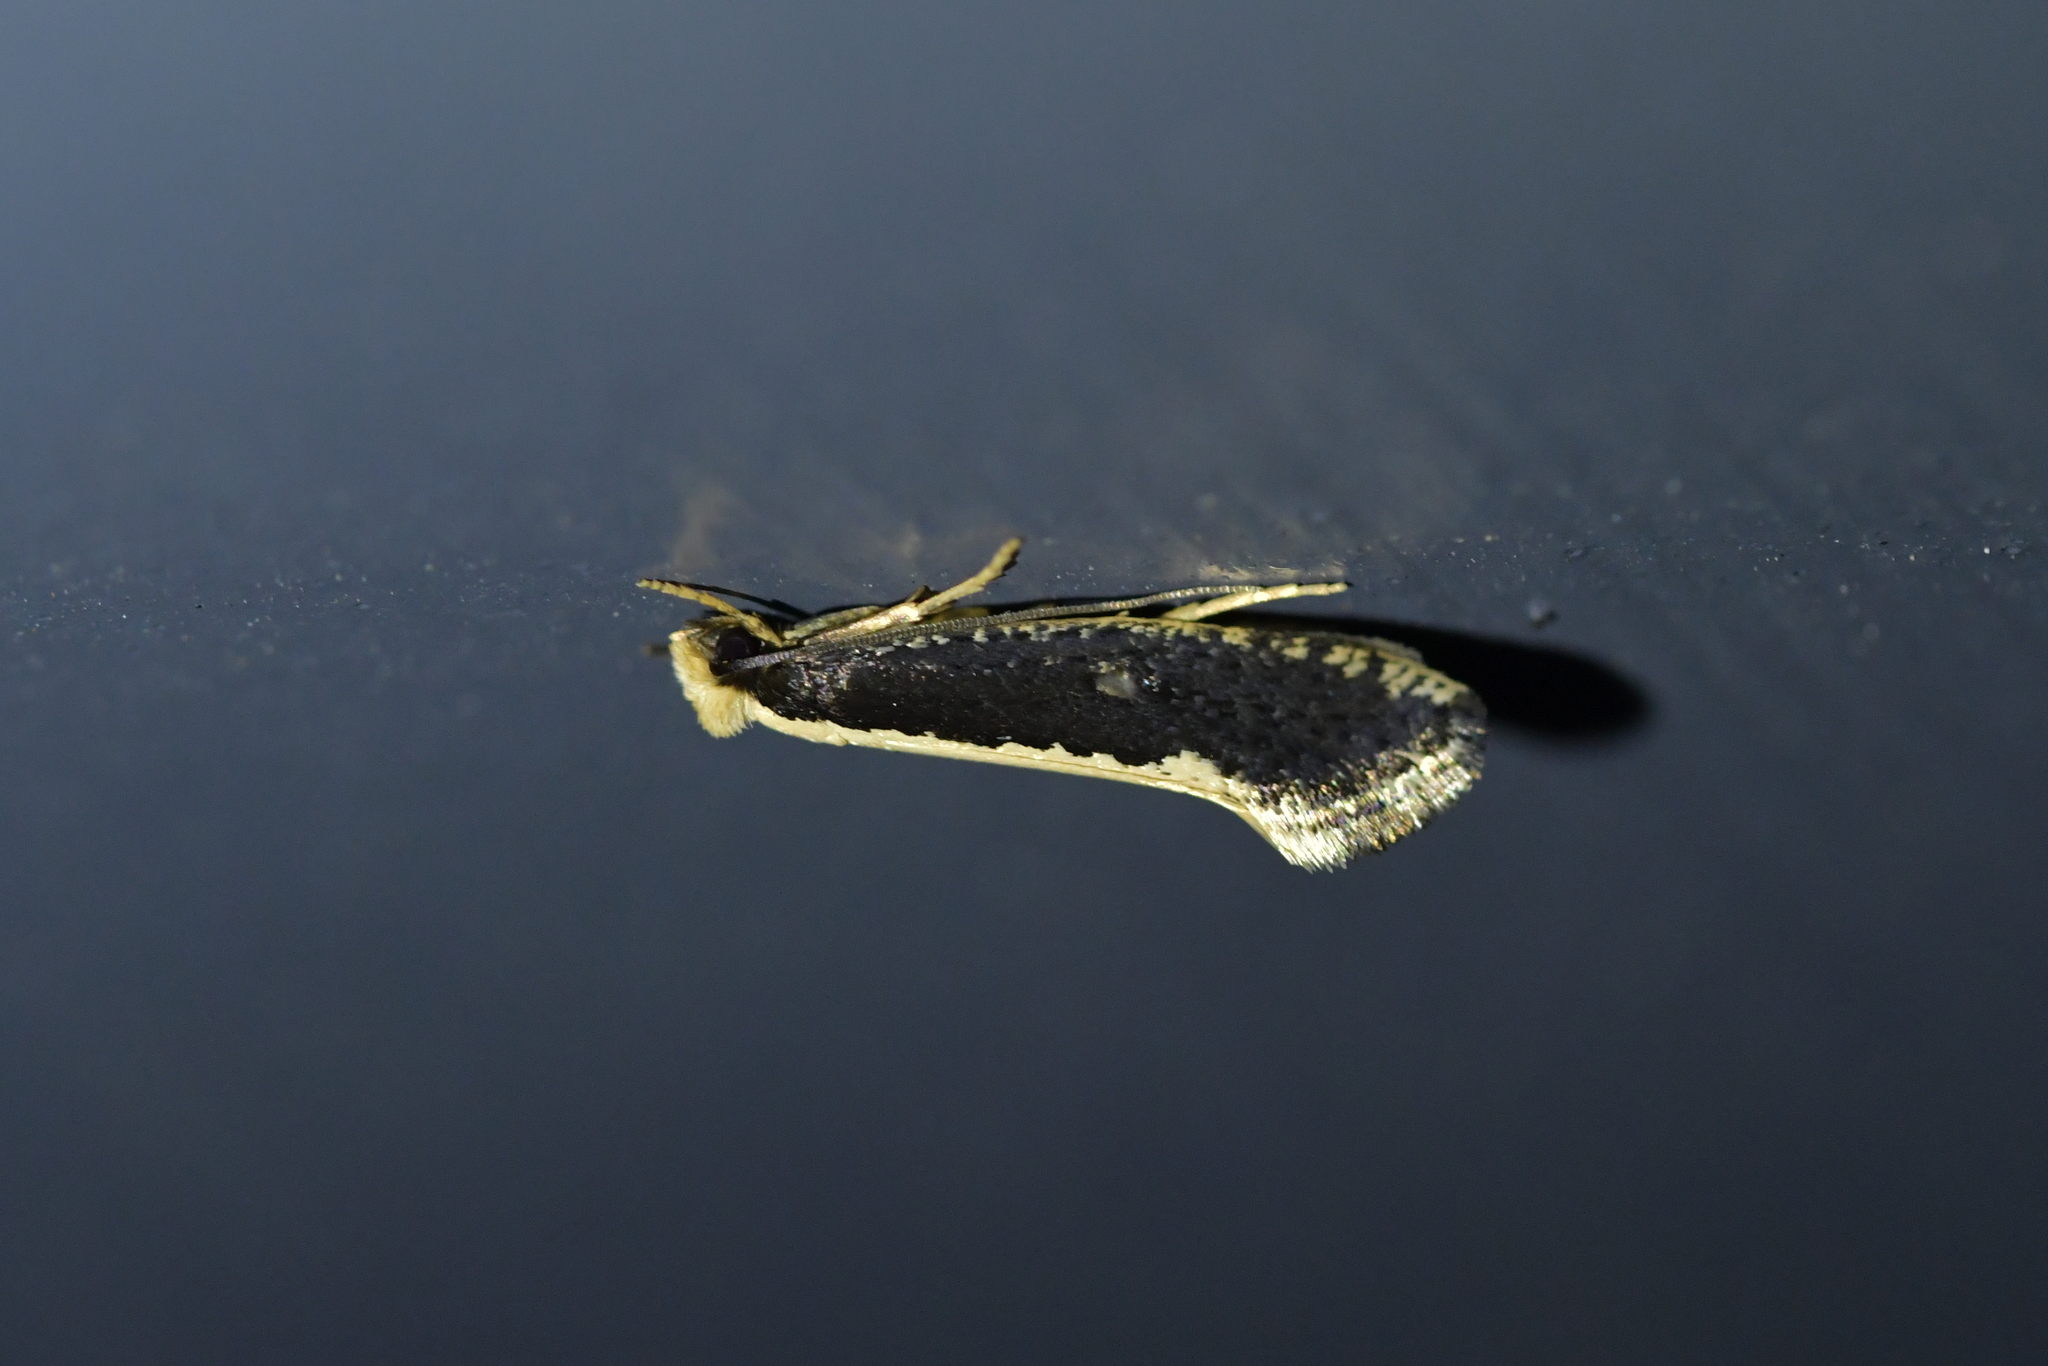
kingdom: Animalia
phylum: Arthropoda
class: Insecta
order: Lepidoptera
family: Tineidae
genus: Monopis
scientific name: Monopis ethelella
